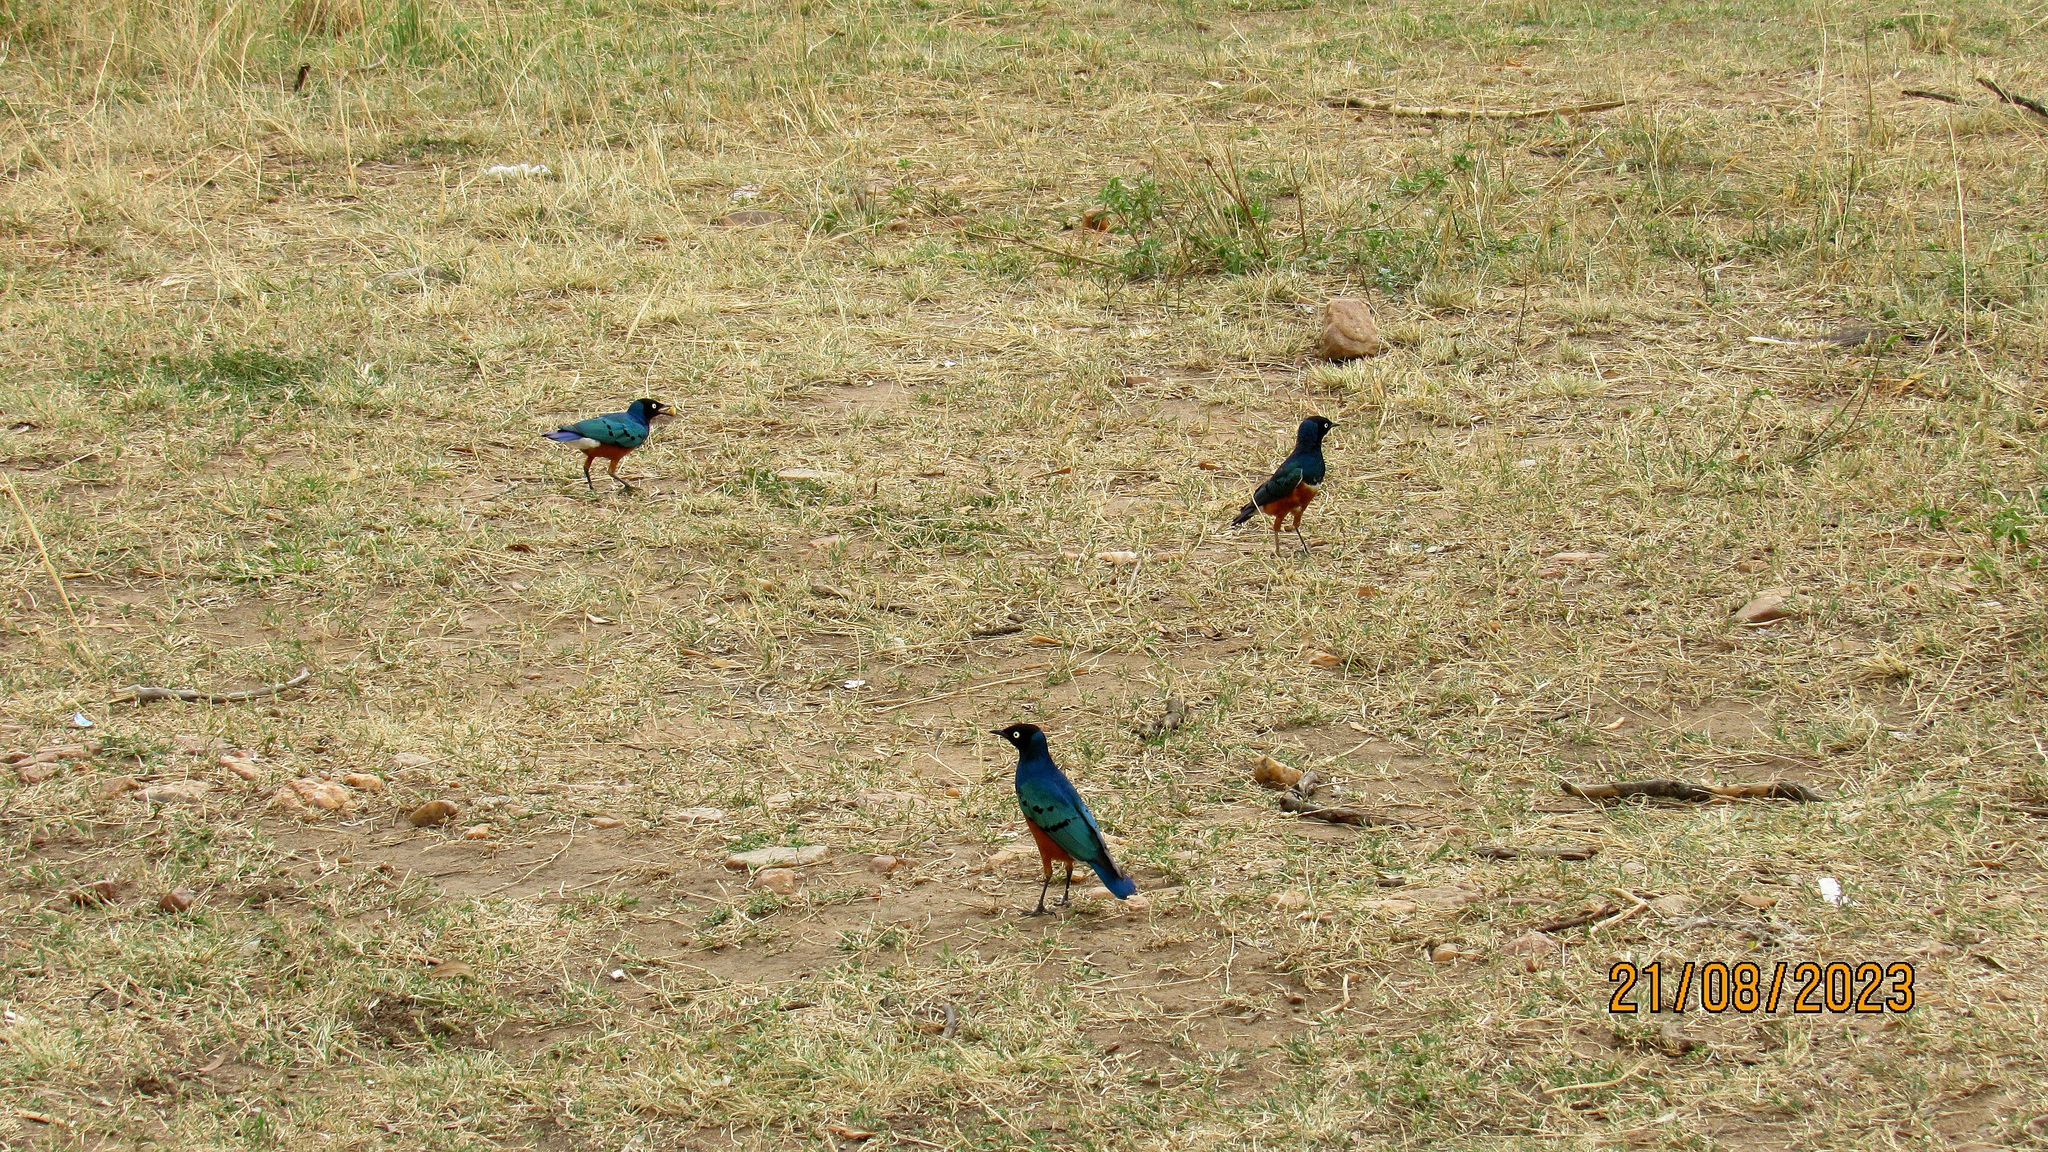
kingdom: Animalia
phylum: Chordata
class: Aves
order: Passeriformes
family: Sturnidae
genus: Lamprotornis
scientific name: Lamprotornis superbus
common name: Superb starling
